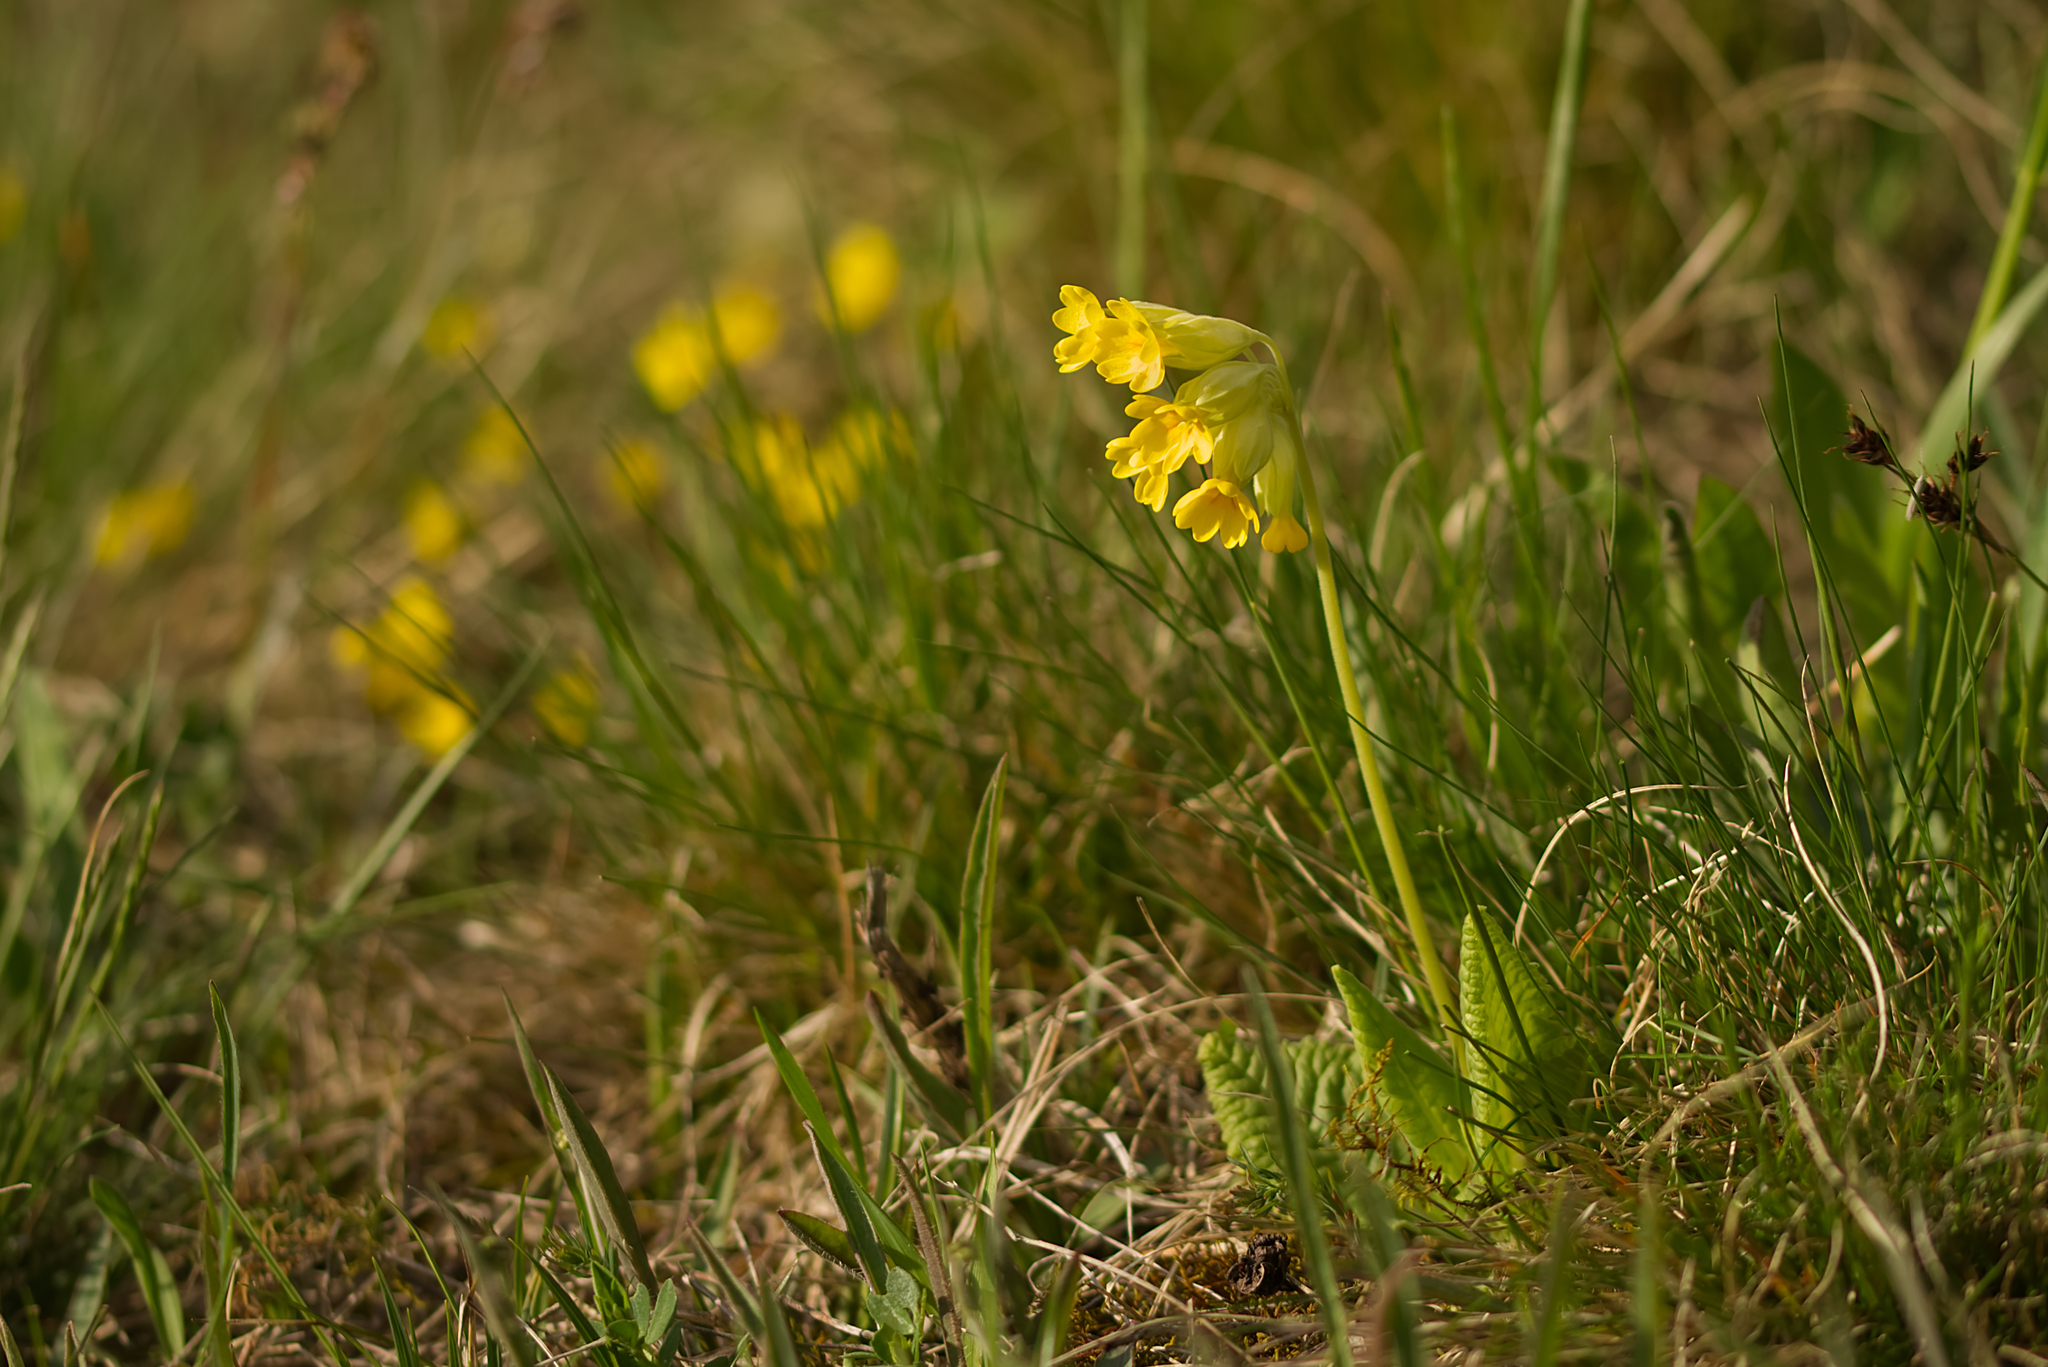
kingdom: Plantae
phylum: Tracheophyta
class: Magnoliopsida
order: Ericales
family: Primulaceae
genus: Primula
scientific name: Primula veris
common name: Cowslip
